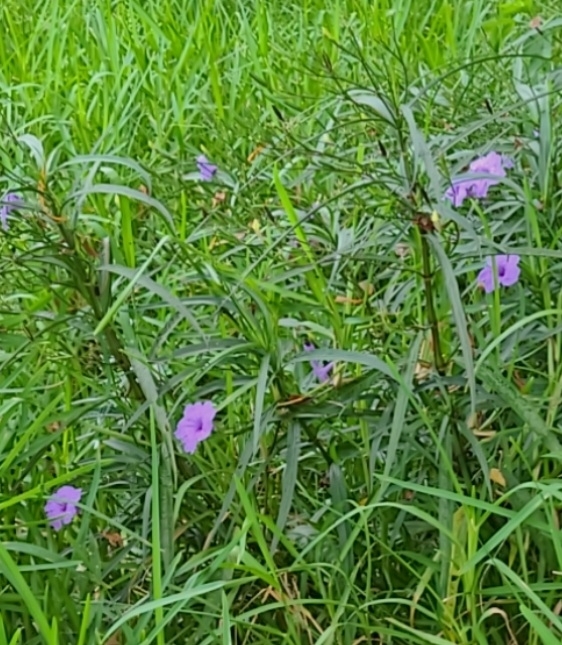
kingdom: Plantae
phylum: Tracheophyta
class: Magnoliopsida
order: Lamiales
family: Acanthaceae
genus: Ruellia
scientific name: Ruellia simplex
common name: Softseed wild petunia
